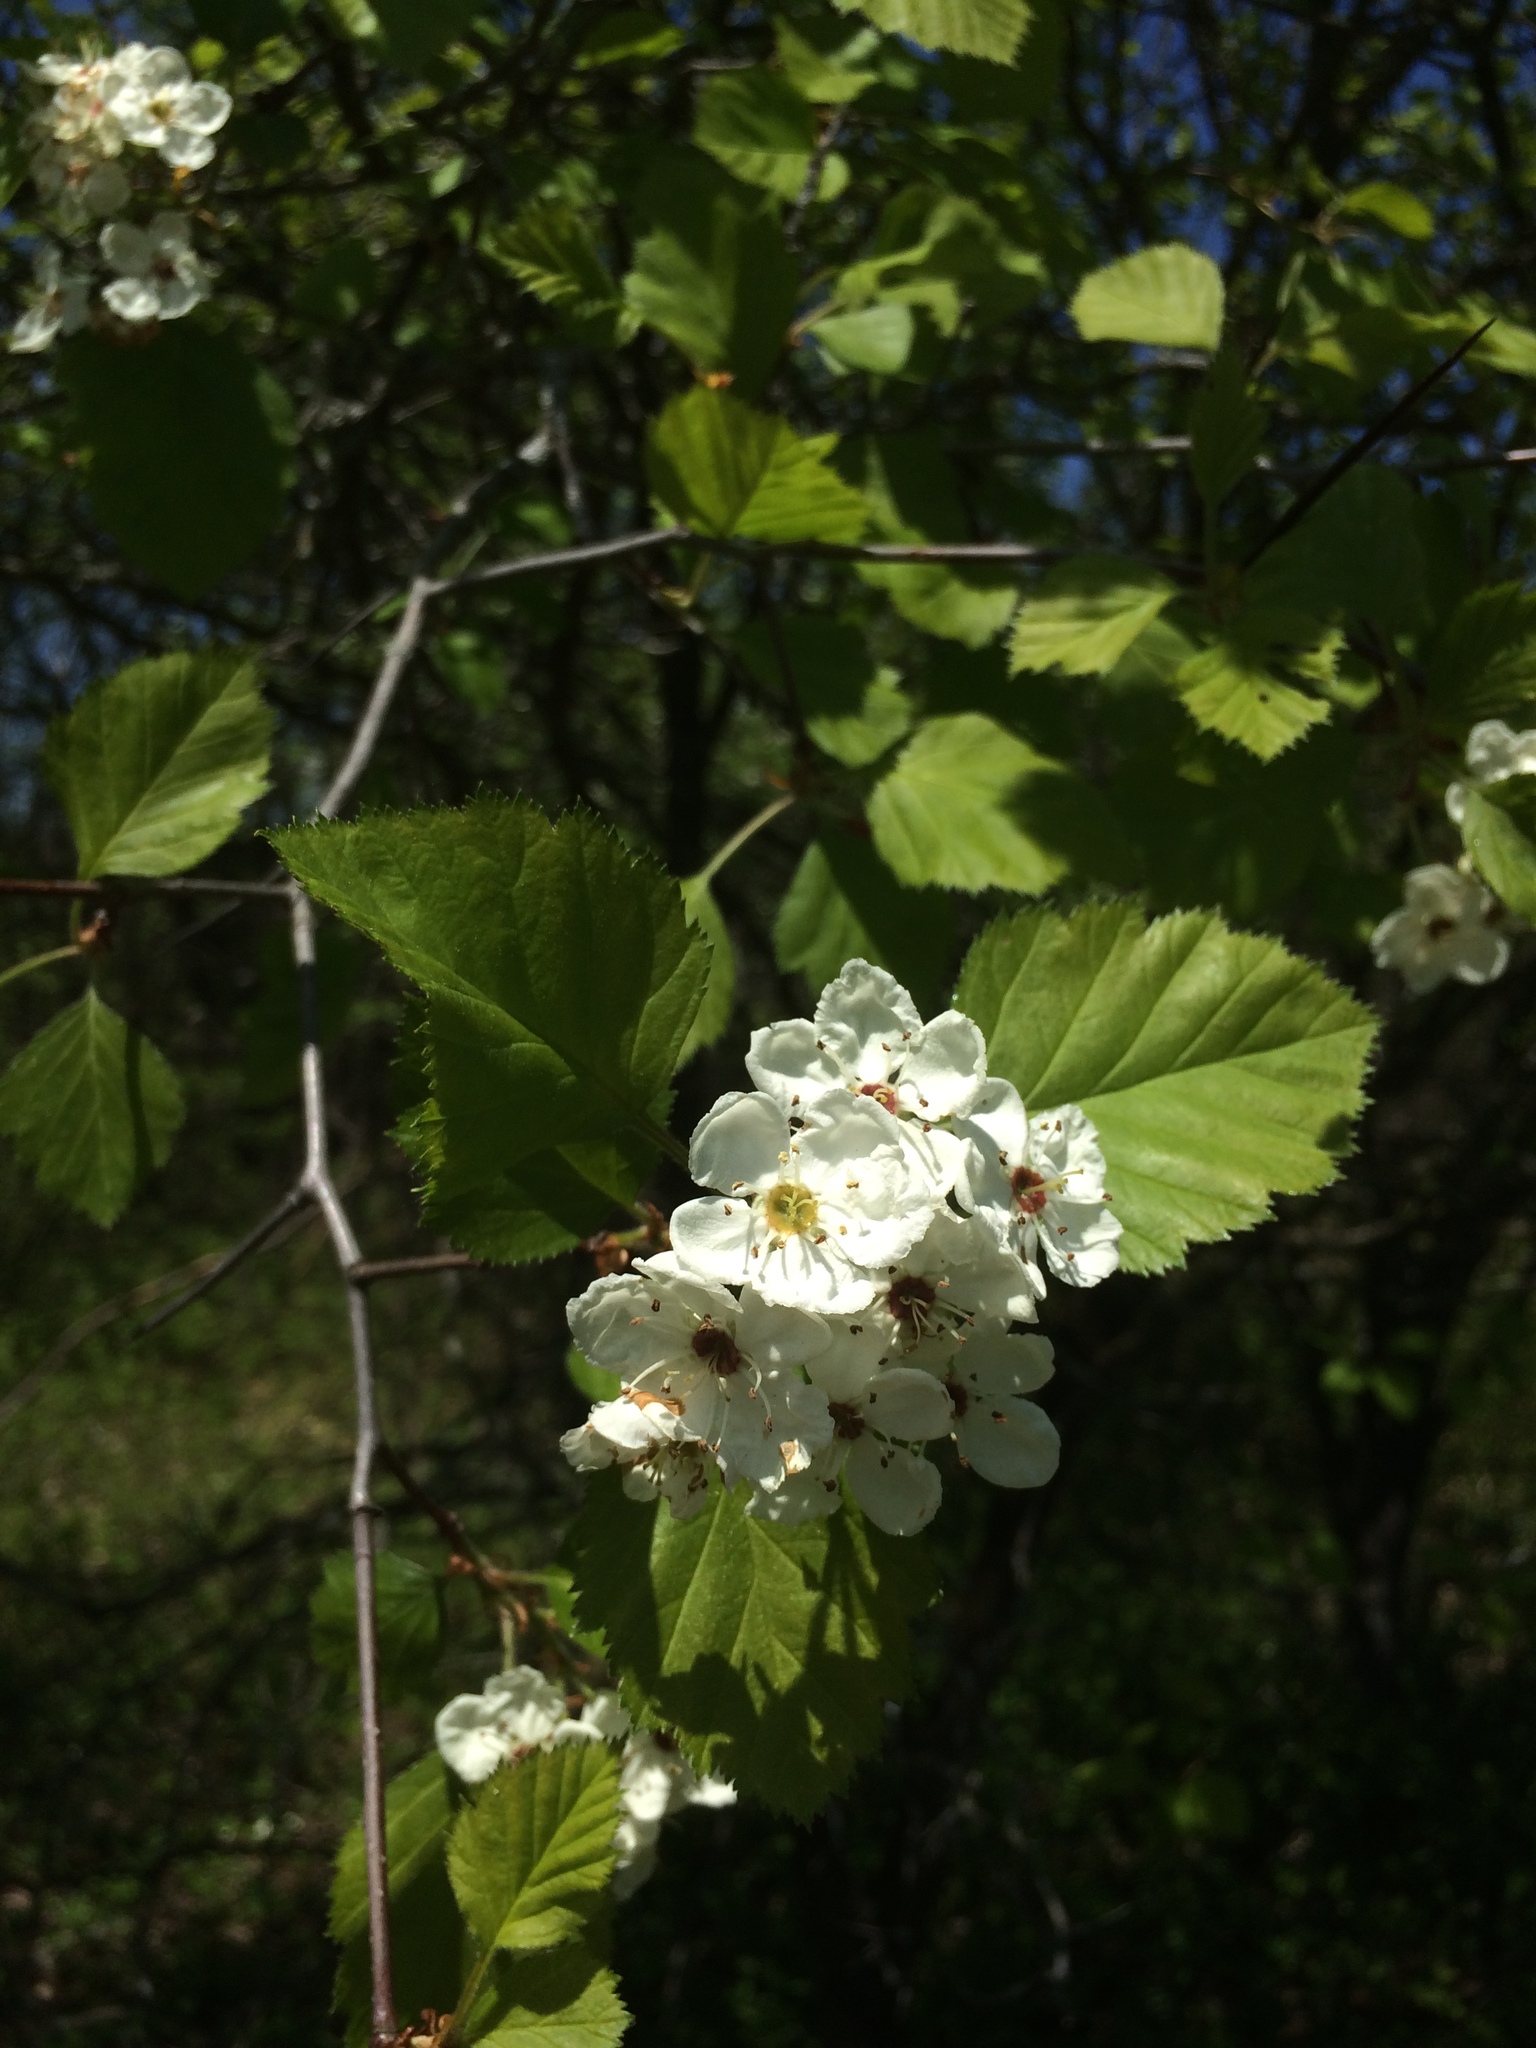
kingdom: Plantae
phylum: Tracheophyta
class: Magnoliopsida
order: Rosales
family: Rosaceae
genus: Crataegus
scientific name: Crataegus submollis
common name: Hairy cockspurthorn
